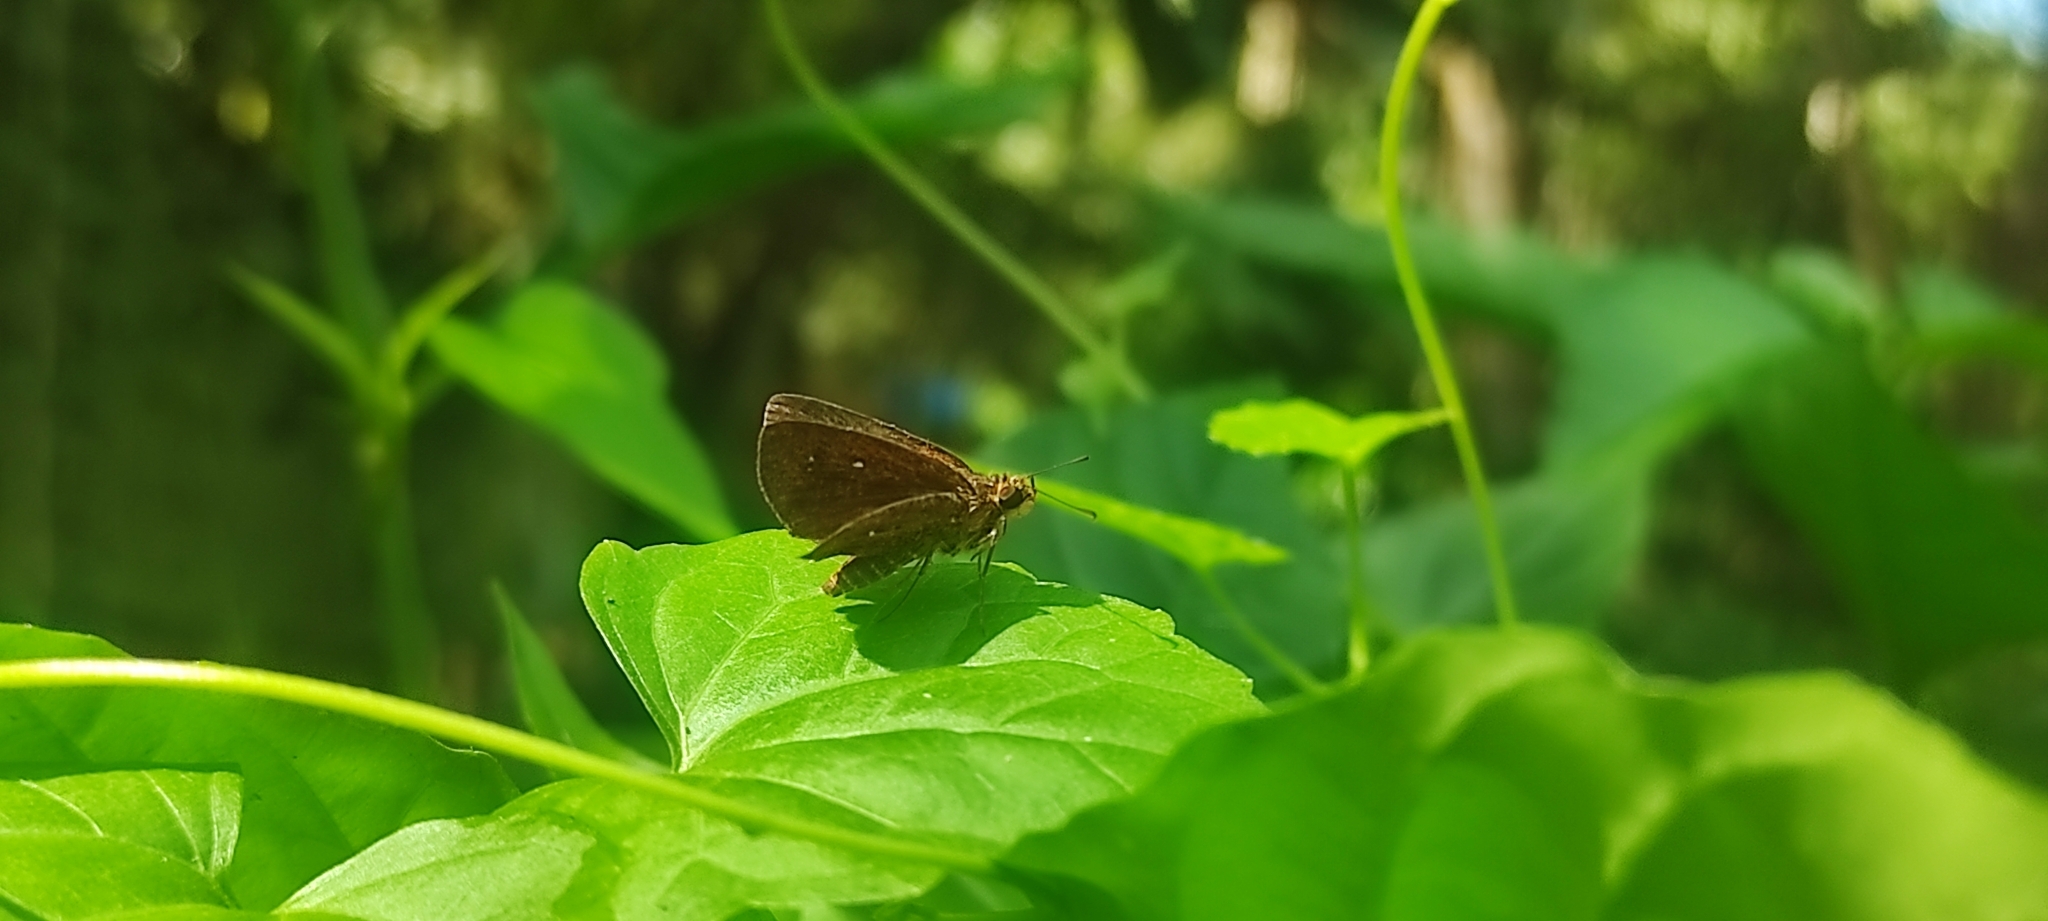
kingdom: Animalia
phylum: Arthropoda
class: Insecta
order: Lepidoptera
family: Hesperiidae
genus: Iambrix
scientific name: Iambrix salsala
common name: Chestnut bob
